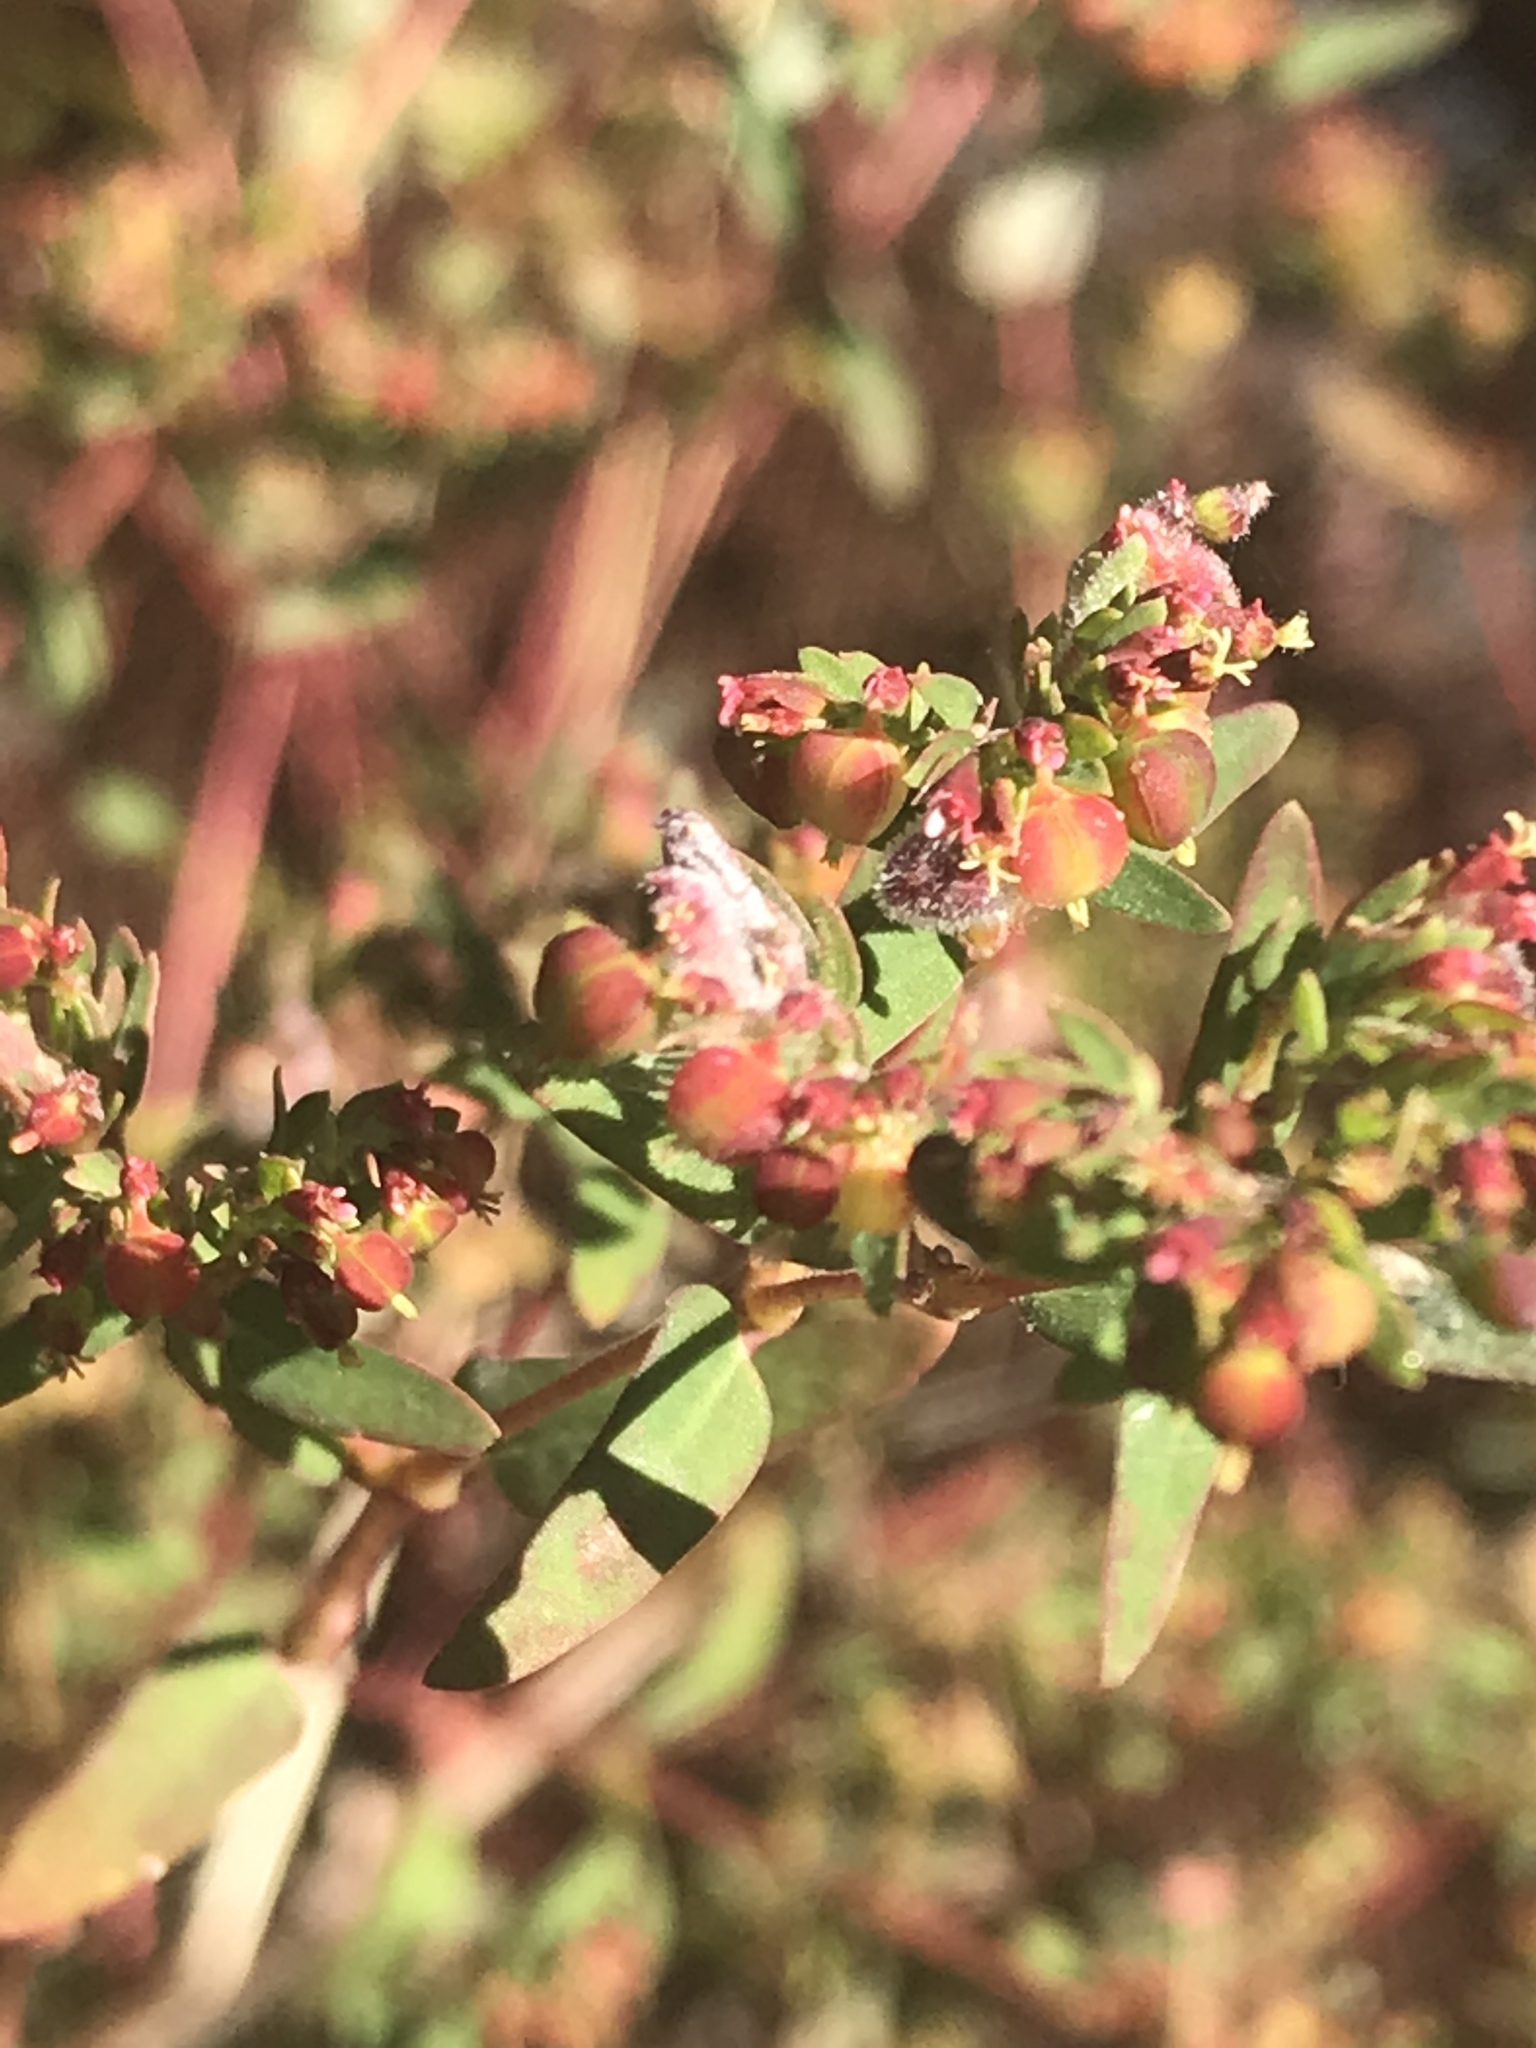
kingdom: Plantae
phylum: Tracheophyta
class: Magnoliopsida
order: Malpighiales
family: Euphorbiaceae
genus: Euphorbia
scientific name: Euphorbia nutans
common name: Eyebane
